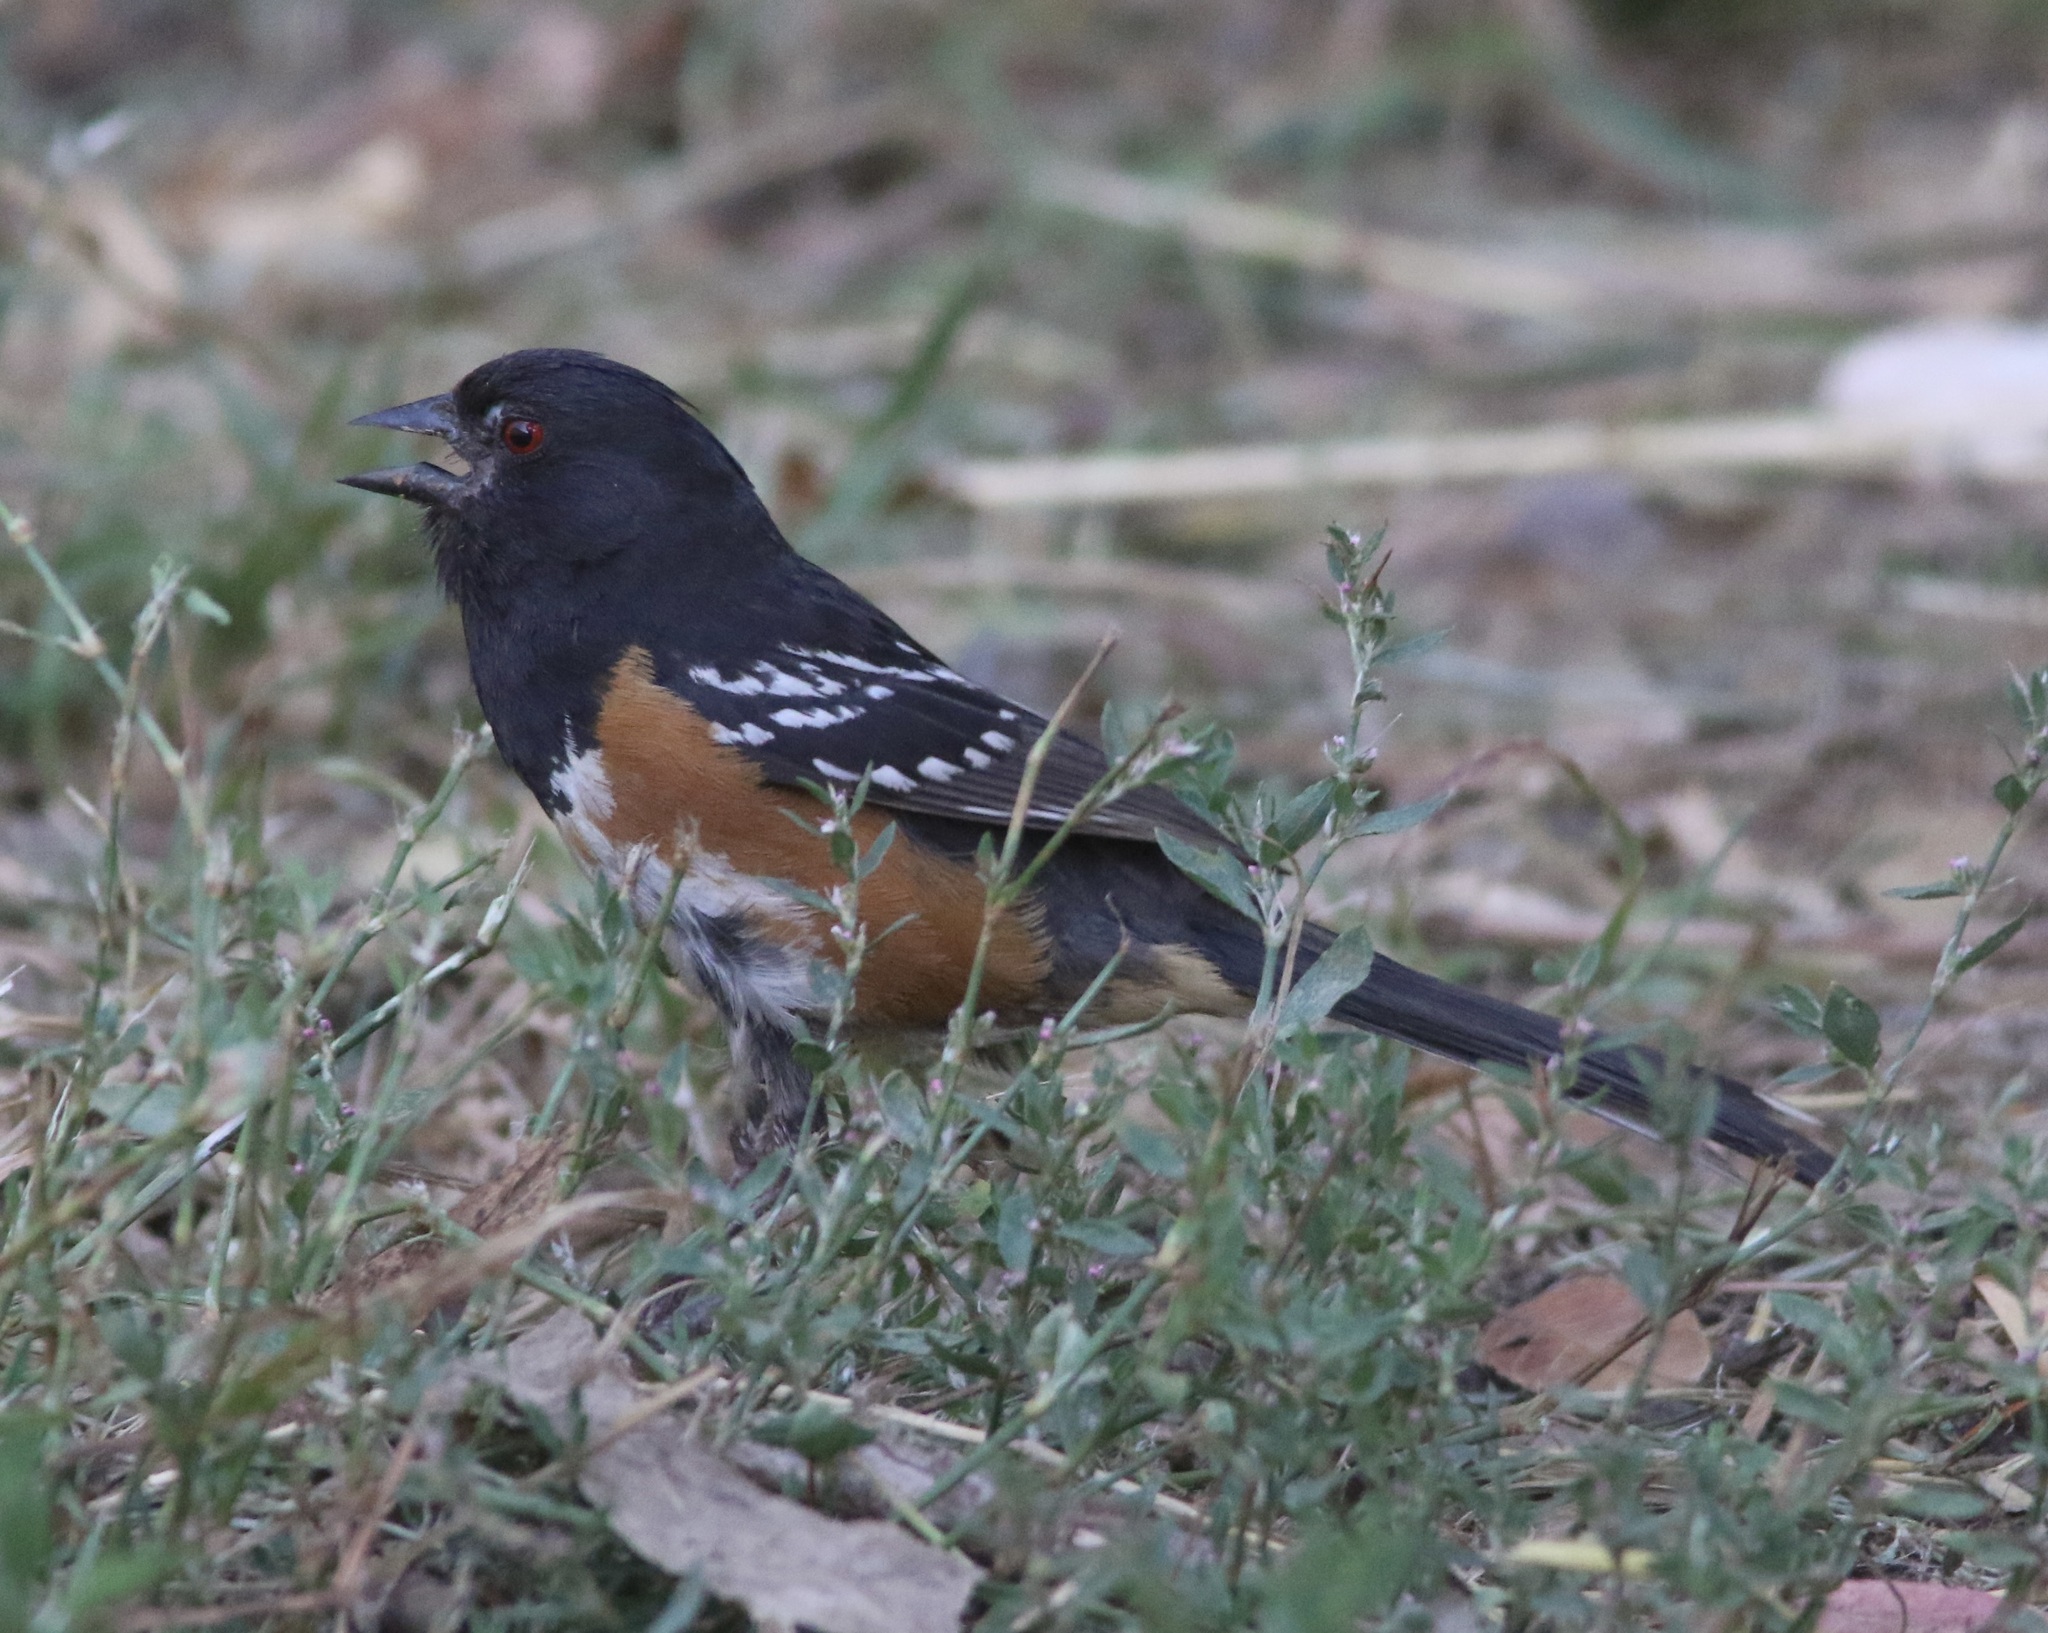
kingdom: Animalia
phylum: Chordata
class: Aves
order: Passeriformes
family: Passerellidae
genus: Pipilo
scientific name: Pipilo maculatus
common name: Spotted towhee
